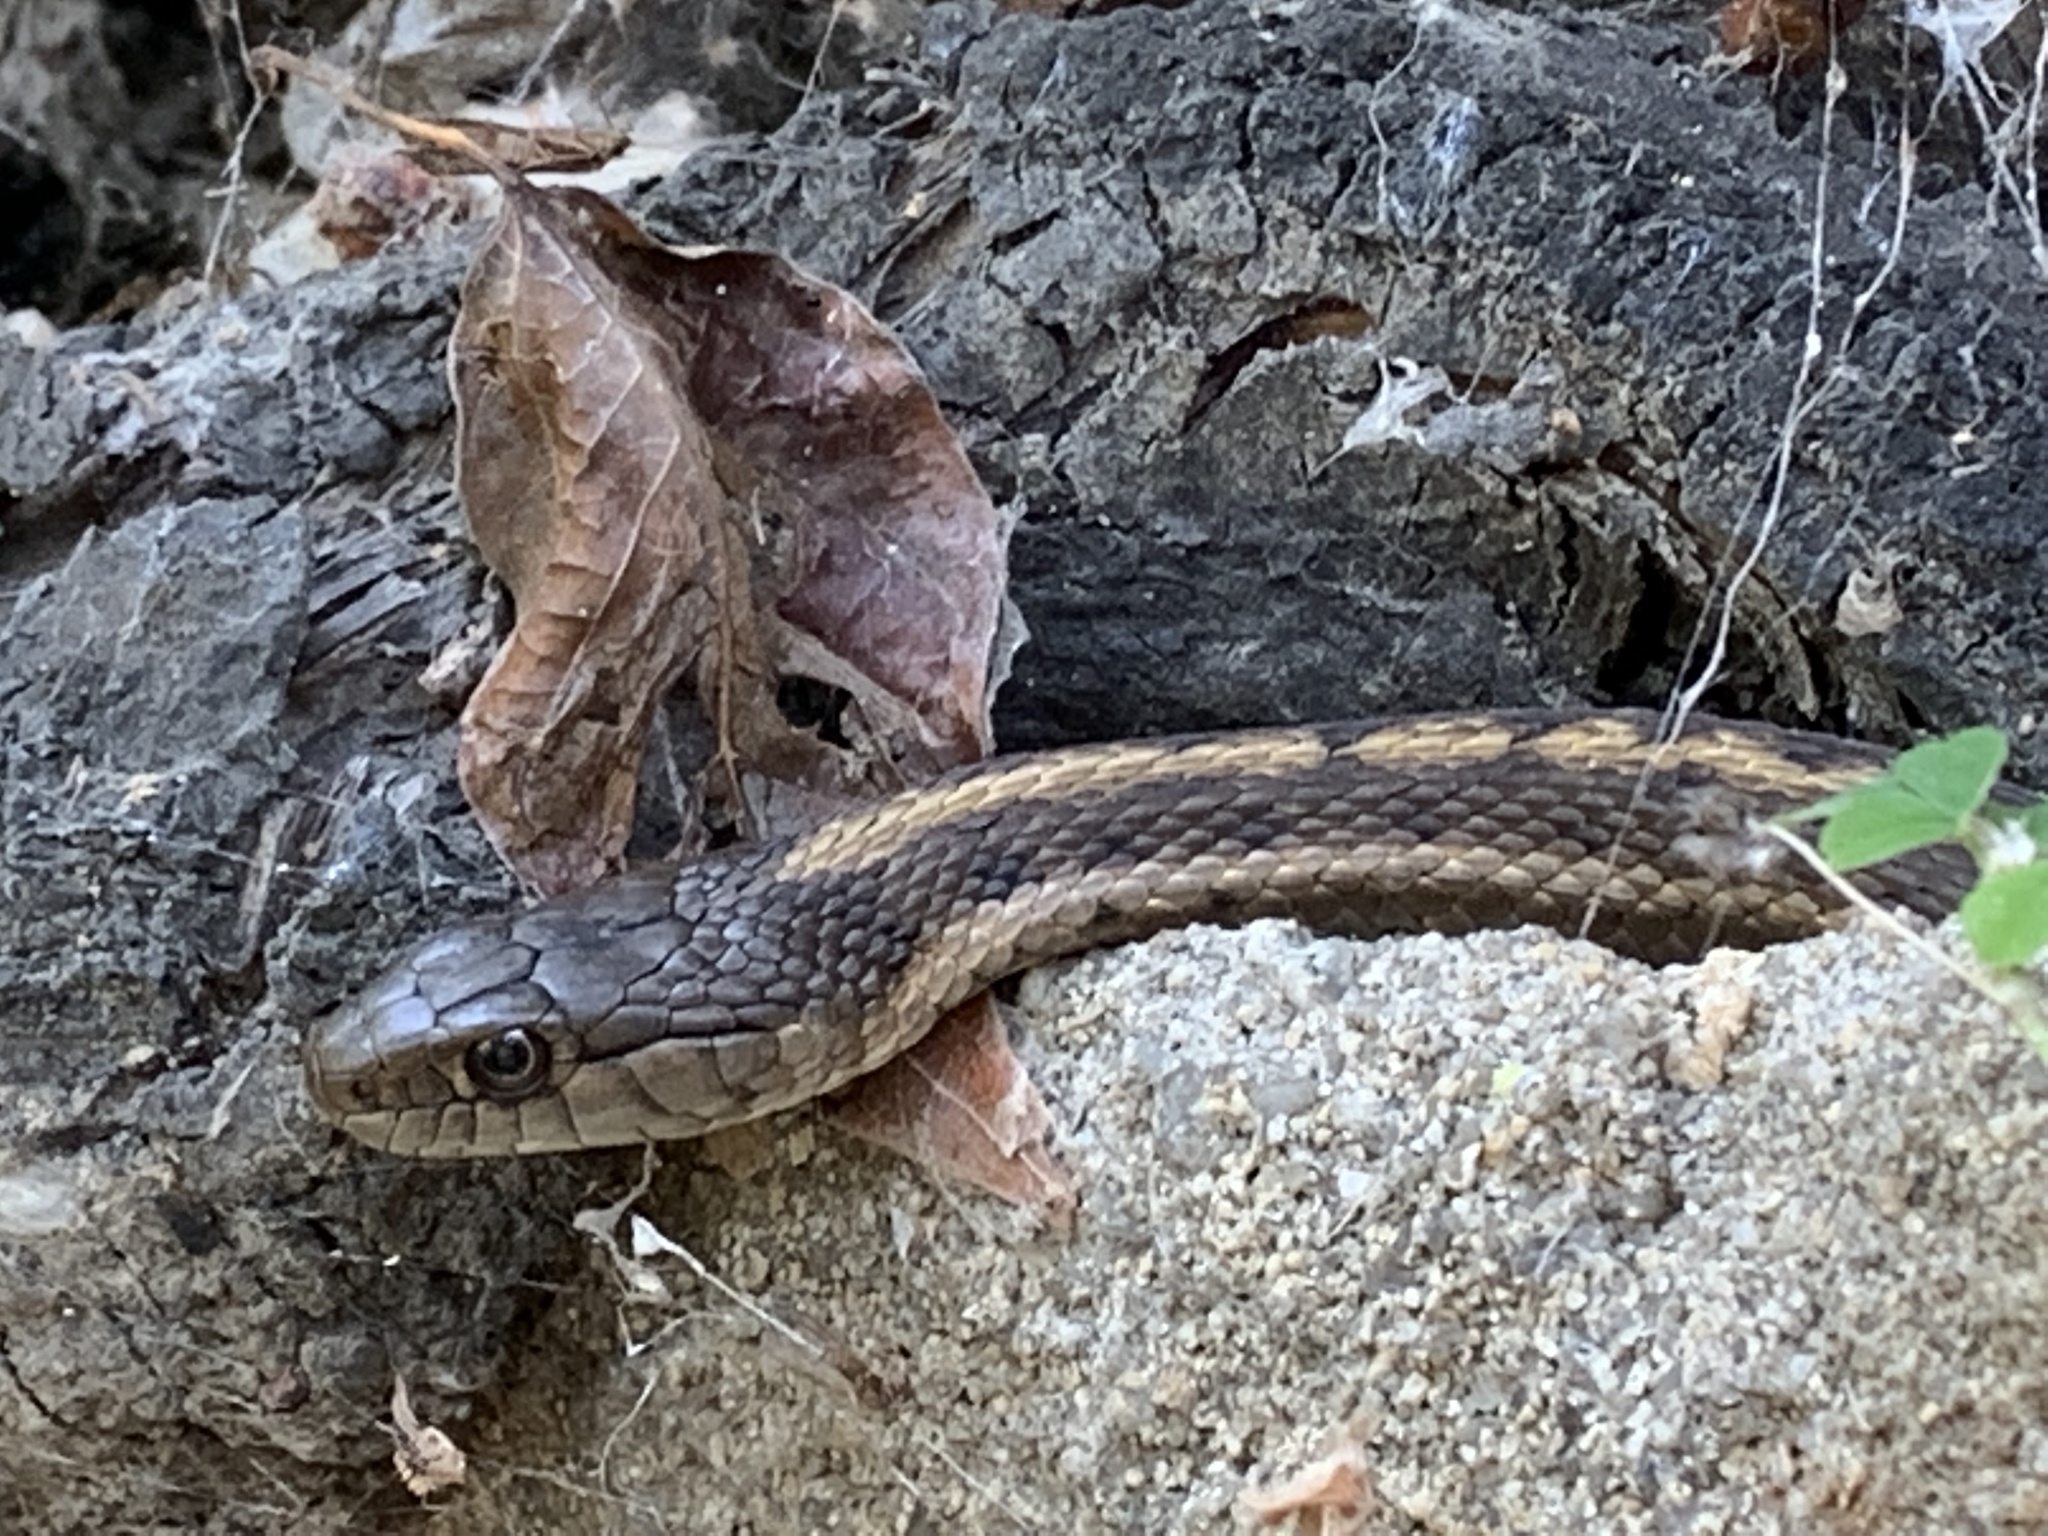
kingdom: Animalia
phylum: Chordata
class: Squamata
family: Colubridae
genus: Thamnophis
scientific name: Thamnophis elegans
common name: Western terrestrial garter snake
